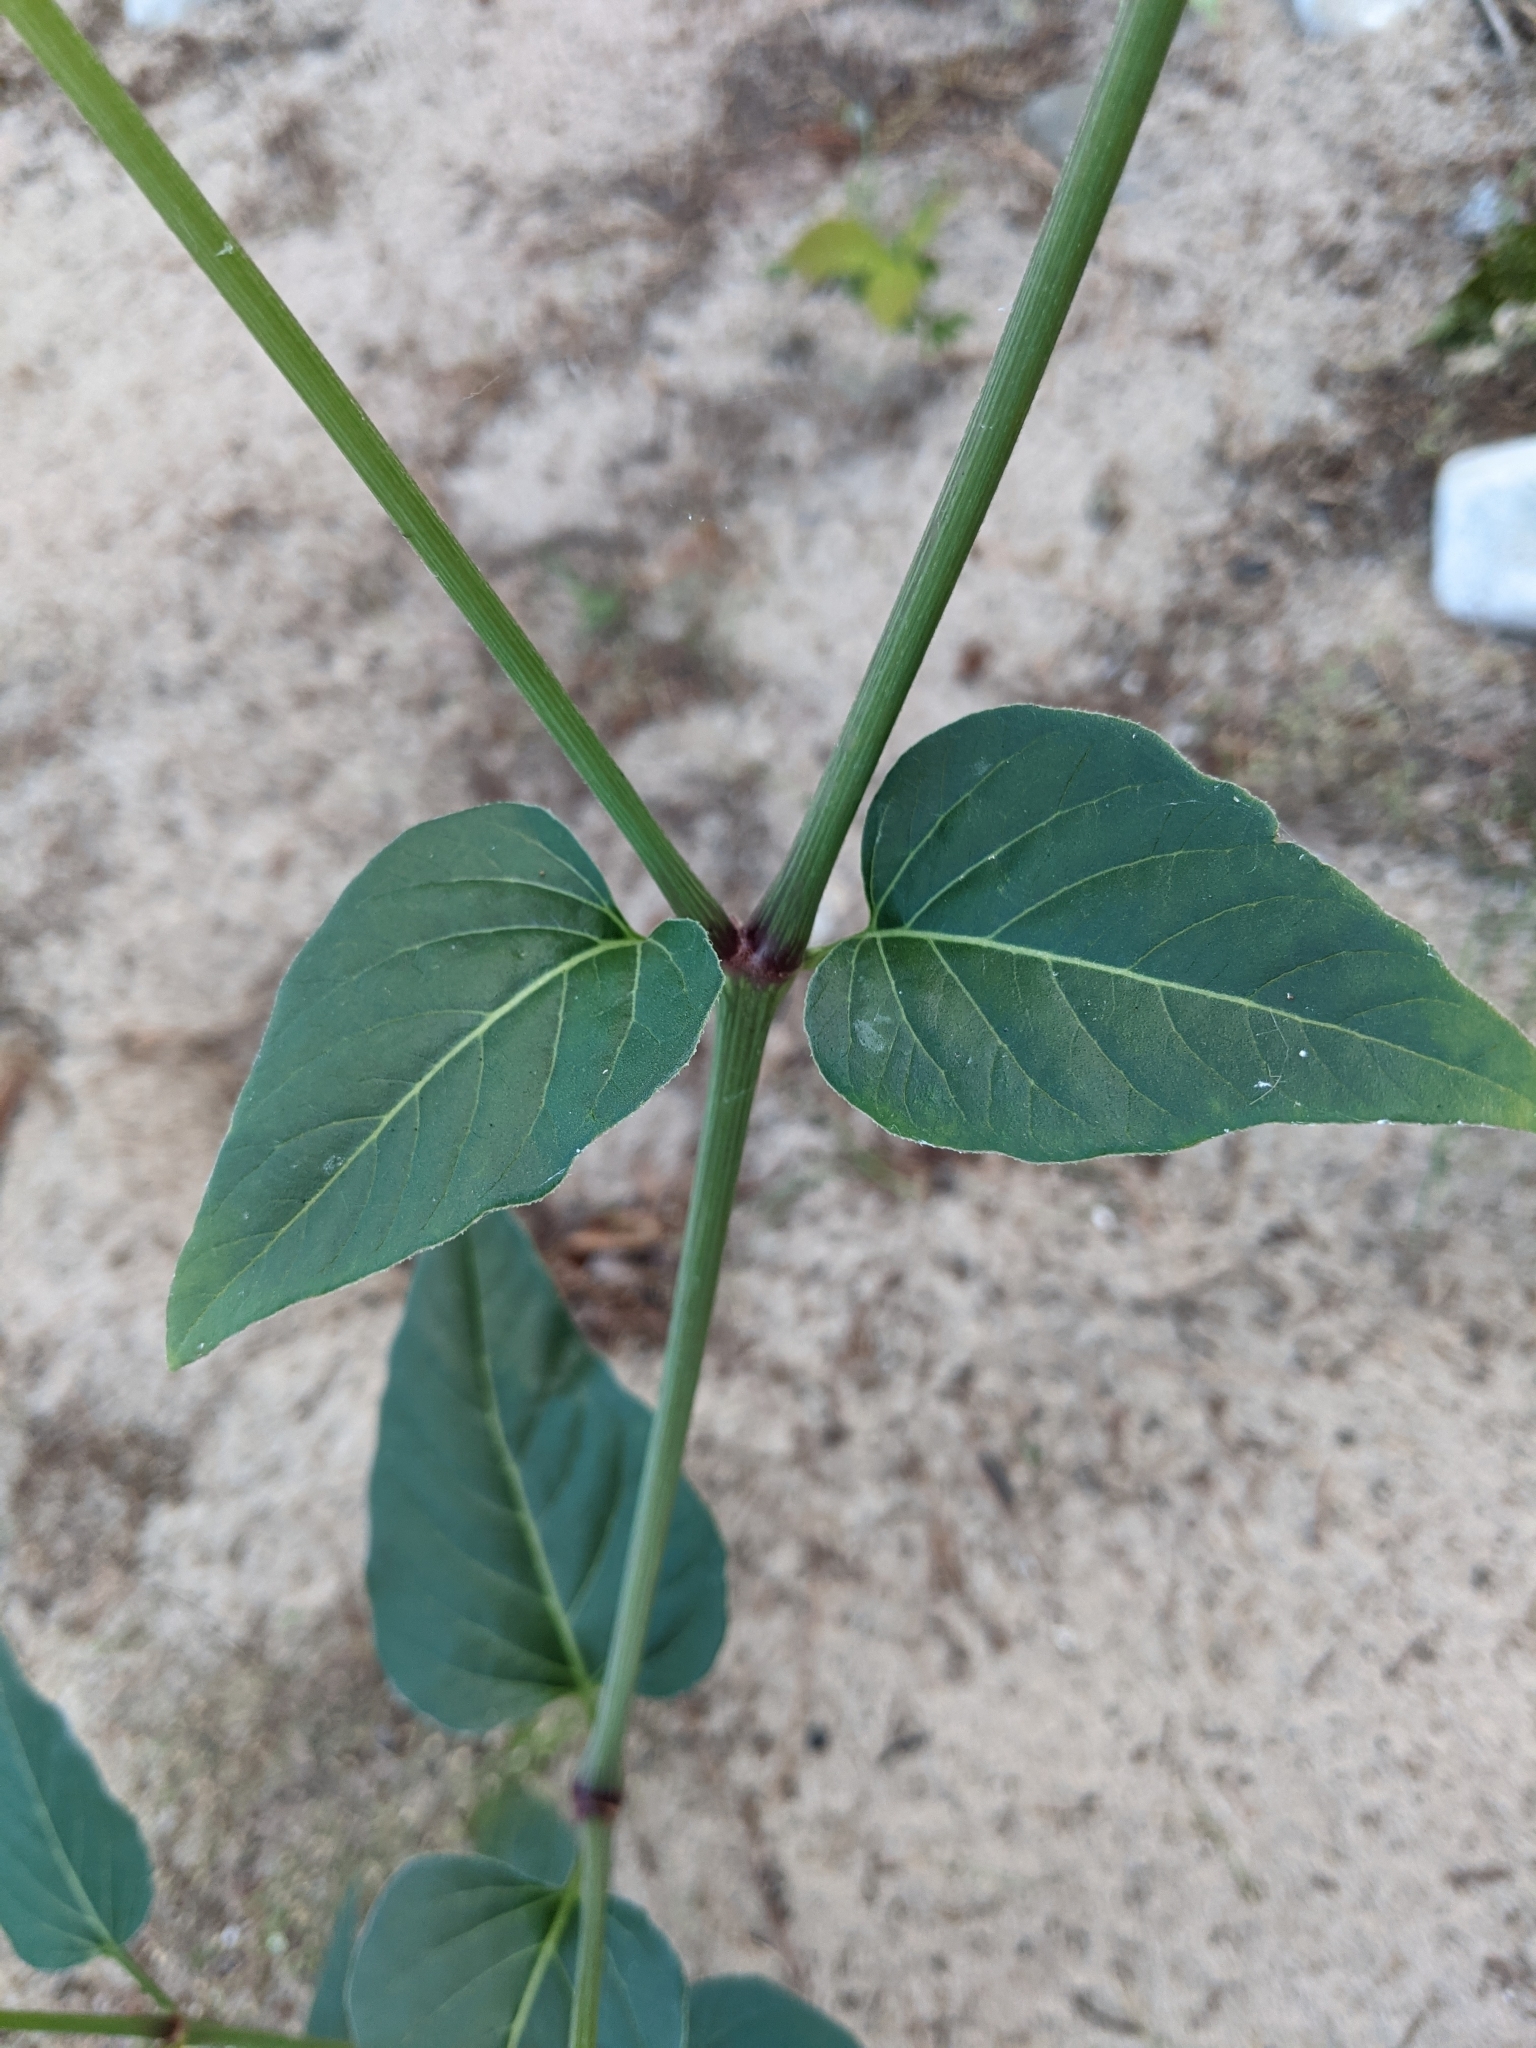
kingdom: Plantae
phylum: Tracheophyta
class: Magnoliopsida
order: Caryophyllales
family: Nyctaginaceae
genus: Mirabilis
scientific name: Mirabilis nyctaginea
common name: Umbrella wort
